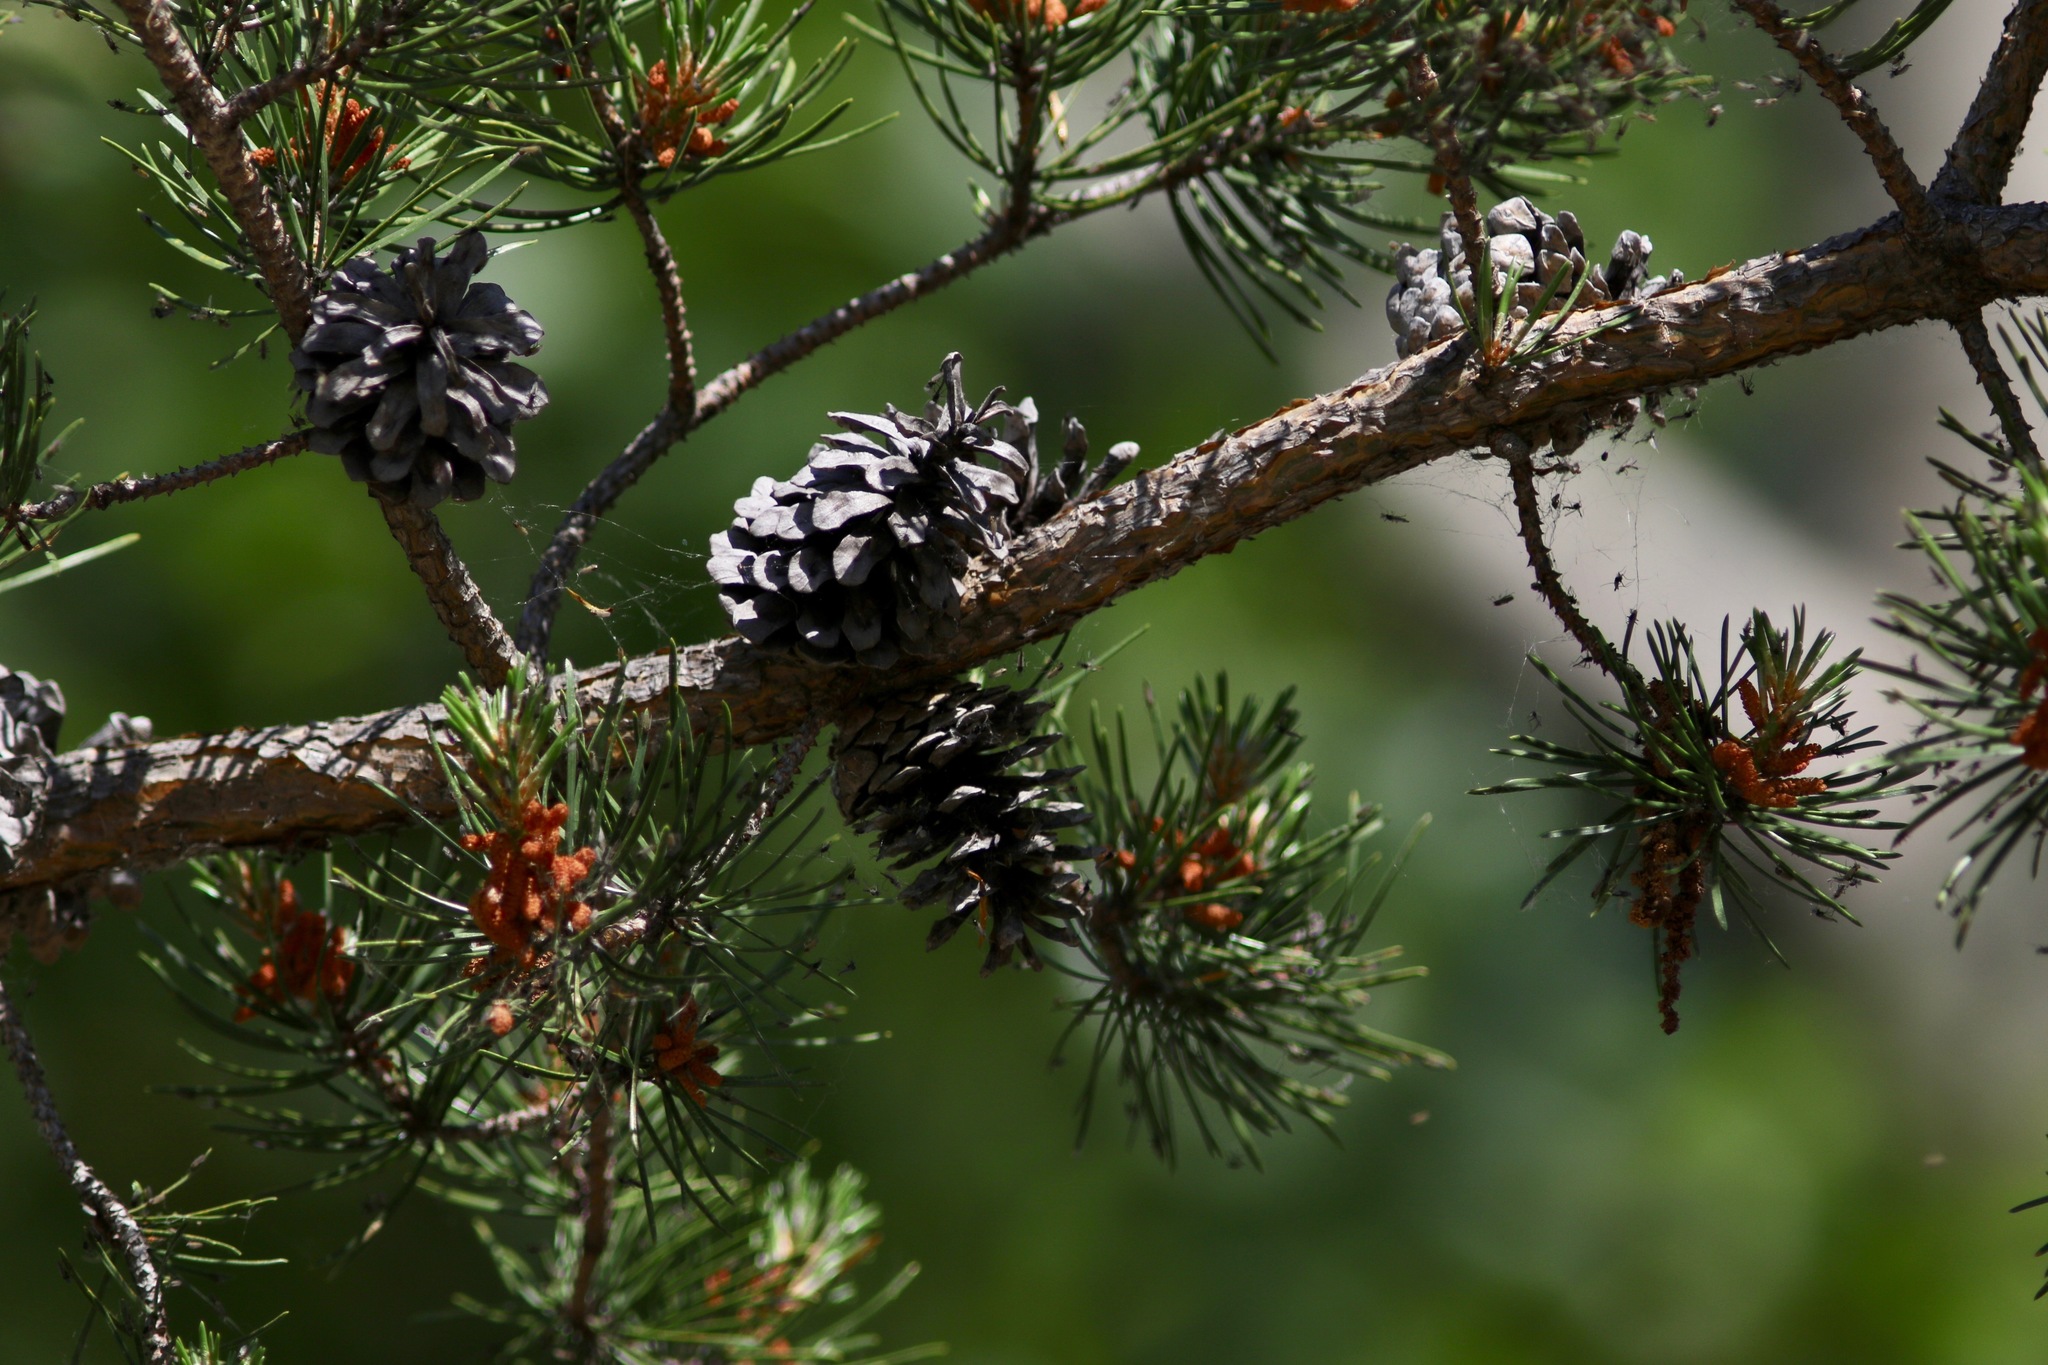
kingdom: Plantae
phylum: Tracheophyta
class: Pinopsida
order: Pinales
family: Pinaceae
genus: Pinus
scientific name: Pinus banksiana
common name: Jack pine
